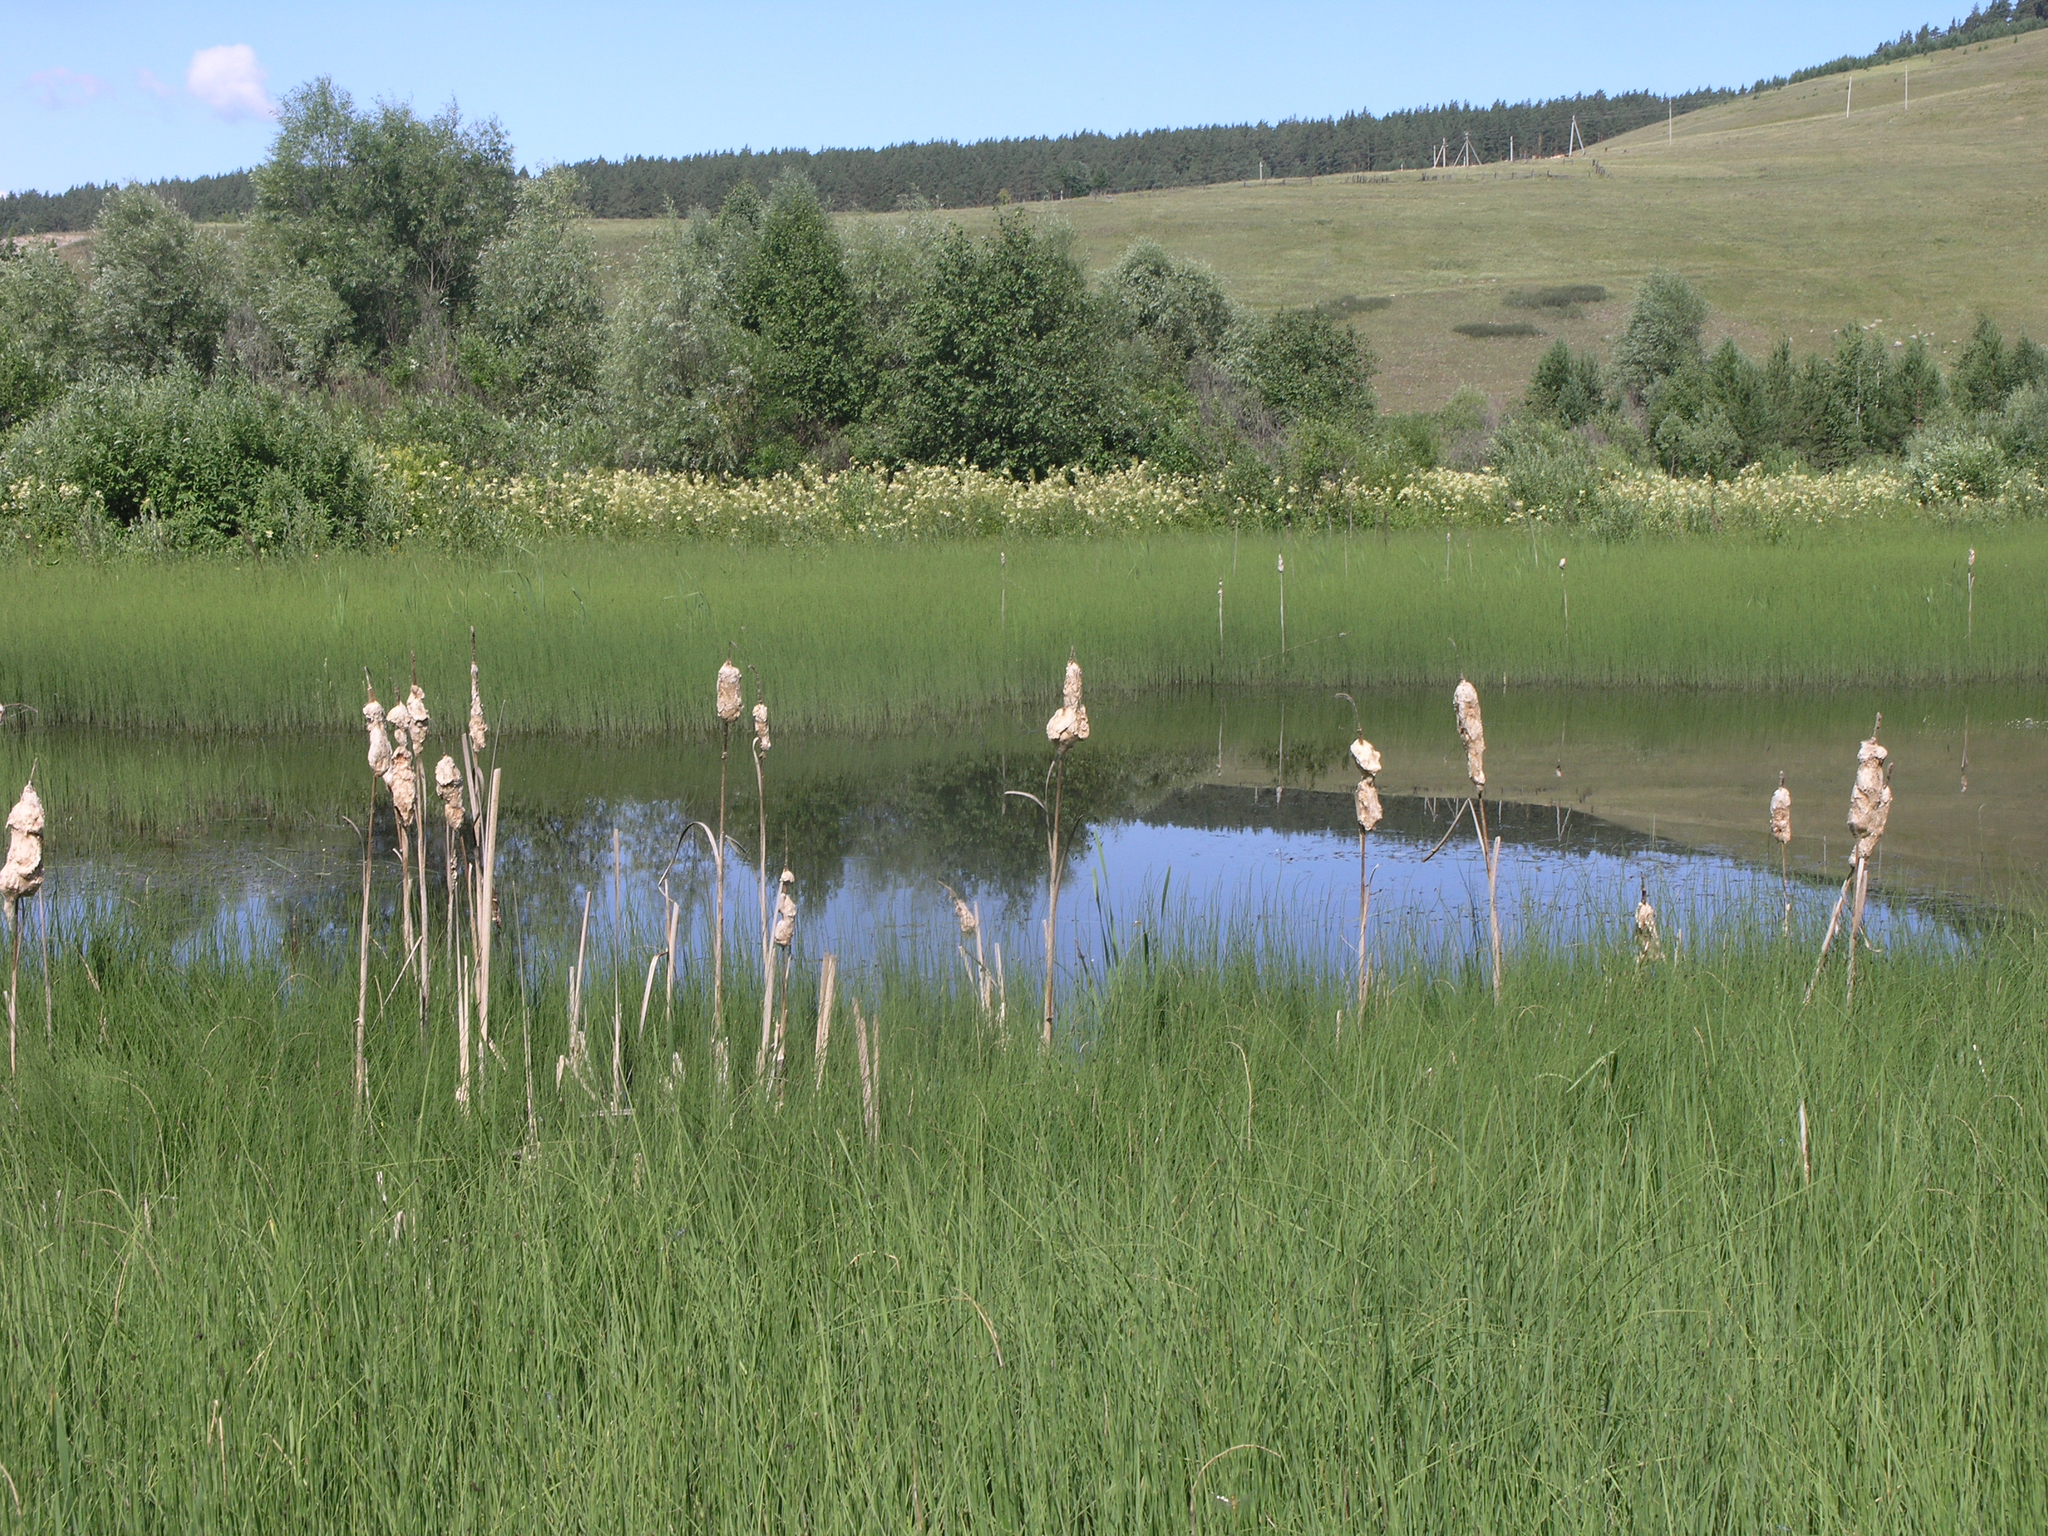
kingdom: Plantae
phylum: Tracheophyta
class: Liliopsida
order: Poales
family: Typhaceae
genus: Typha
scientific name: Typha latifolia
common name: Broadleaf cattail
